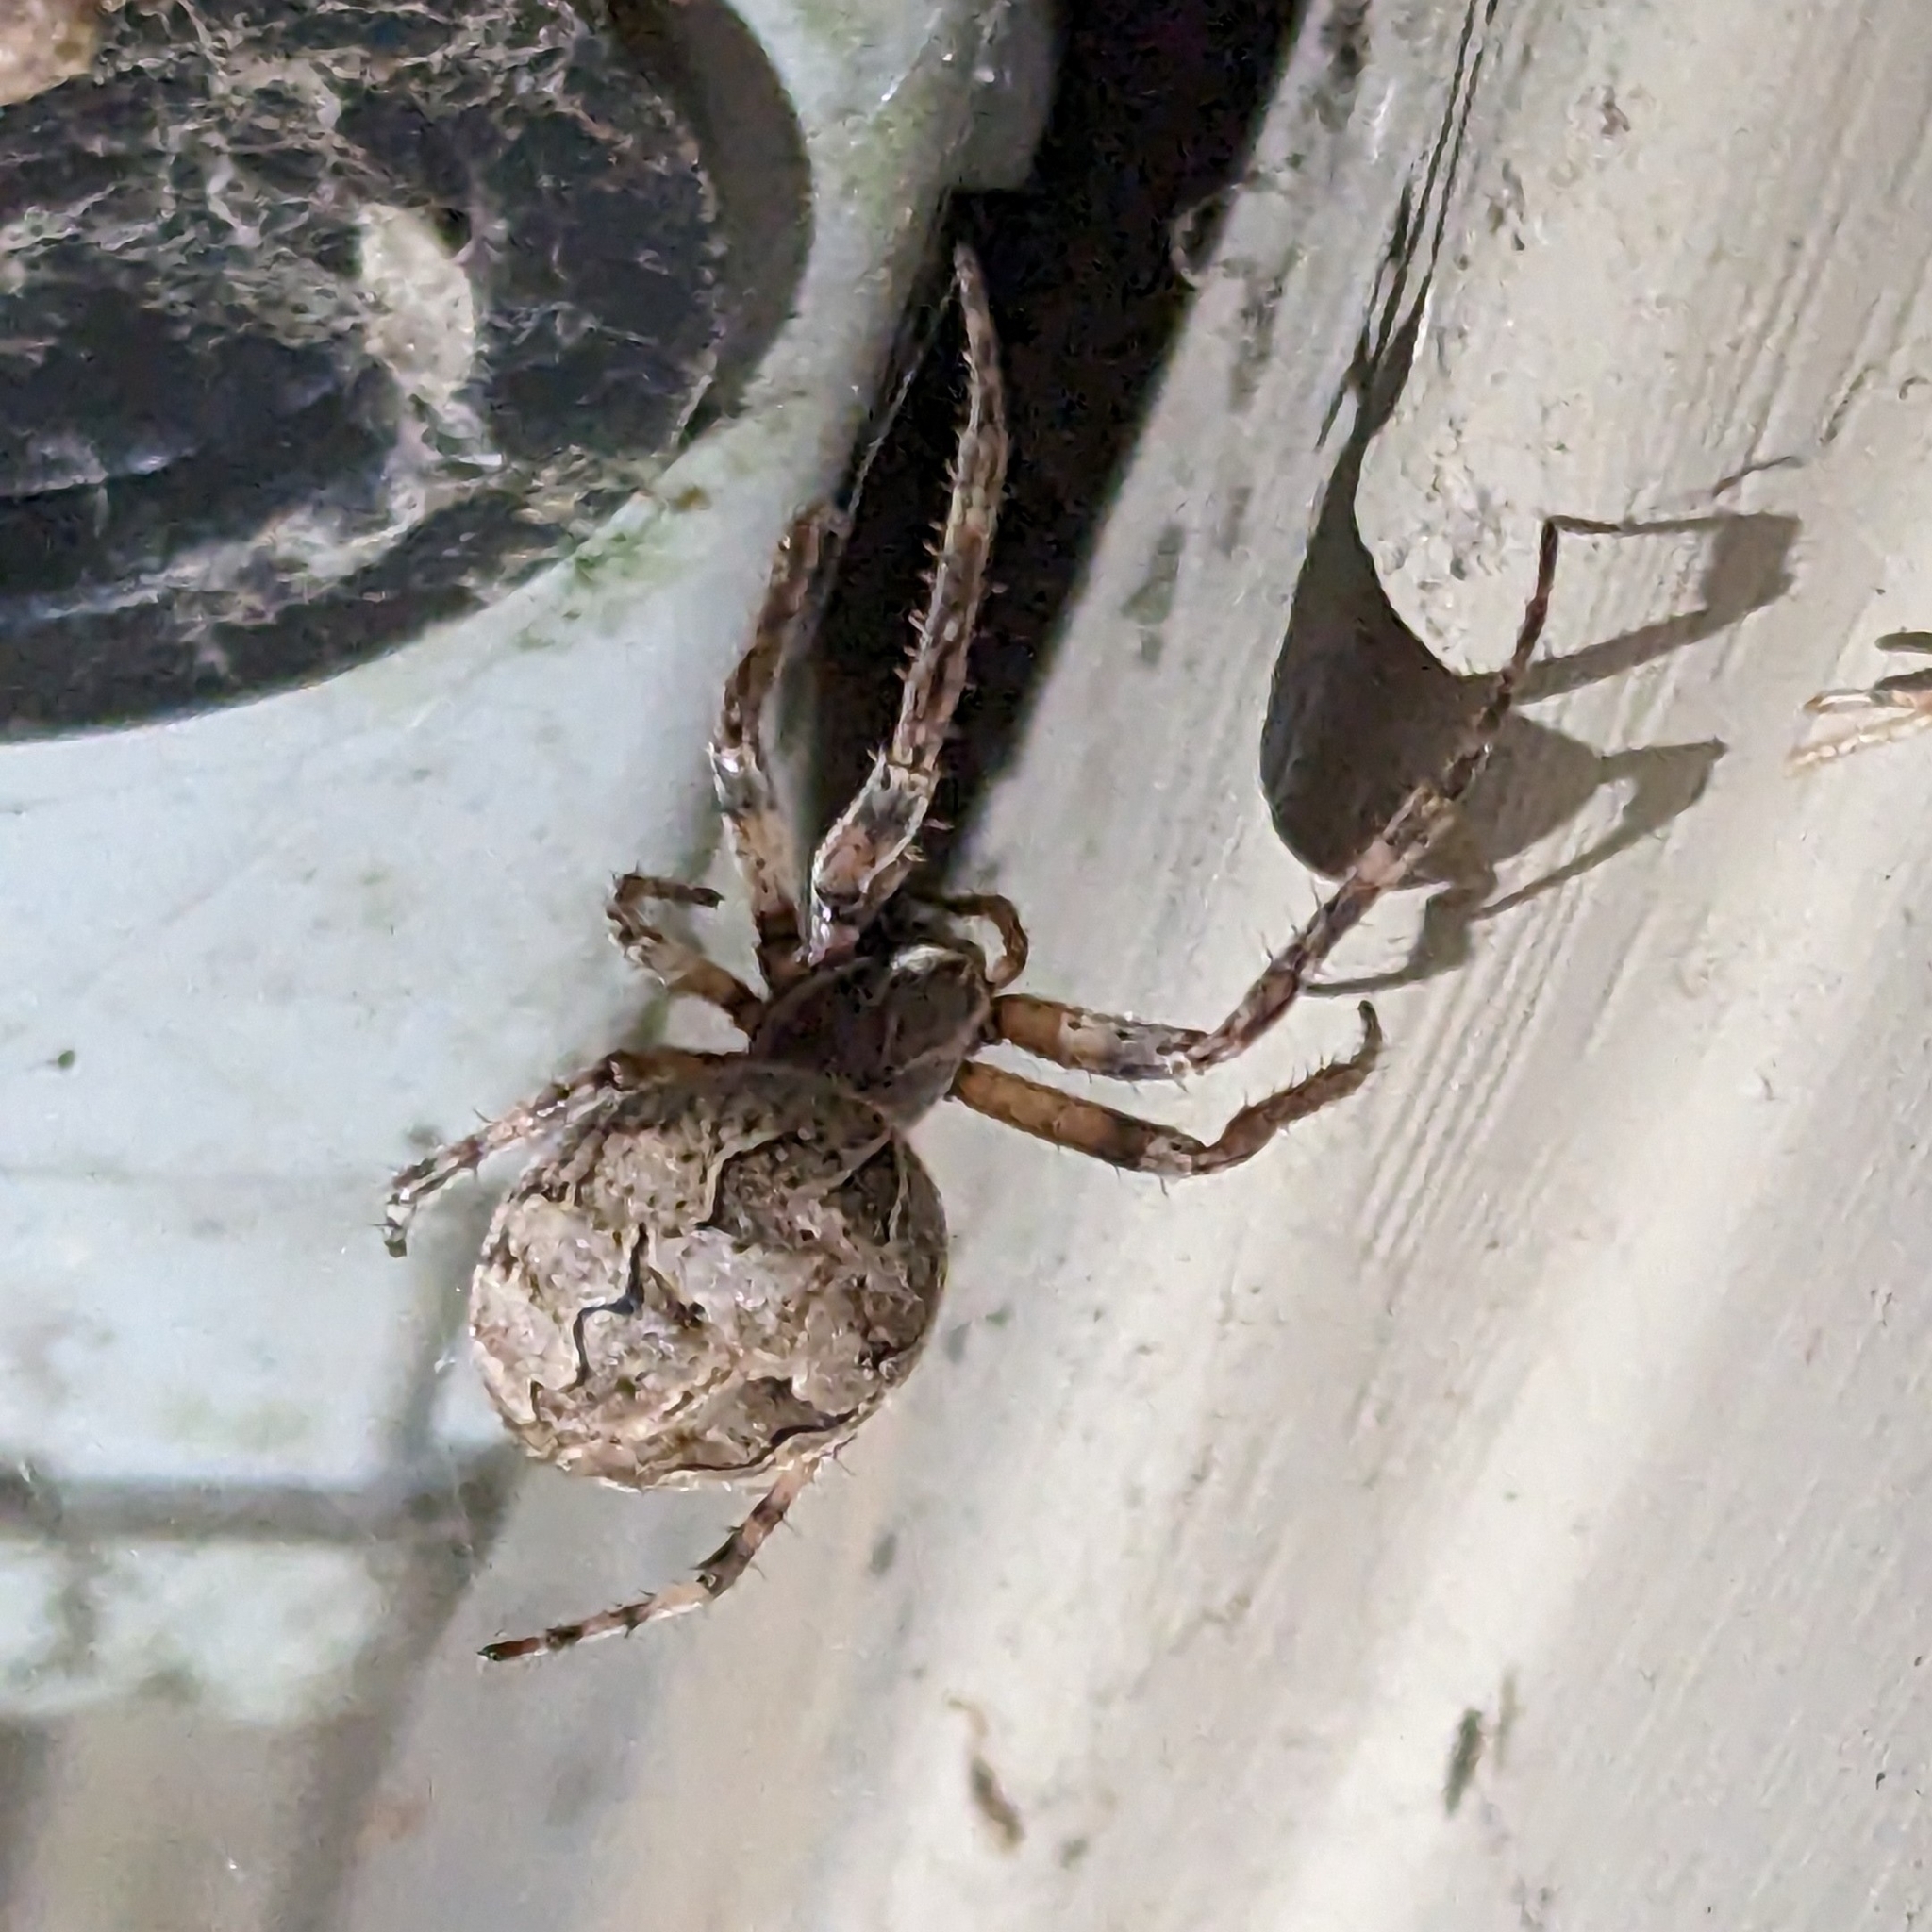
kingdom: Animalia
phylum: Arthropoda
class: Arachnida
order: Araneae
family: Araneidae
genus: Larinioides
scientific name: Larinioides sclopetarius
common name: Bridge orbweaver
